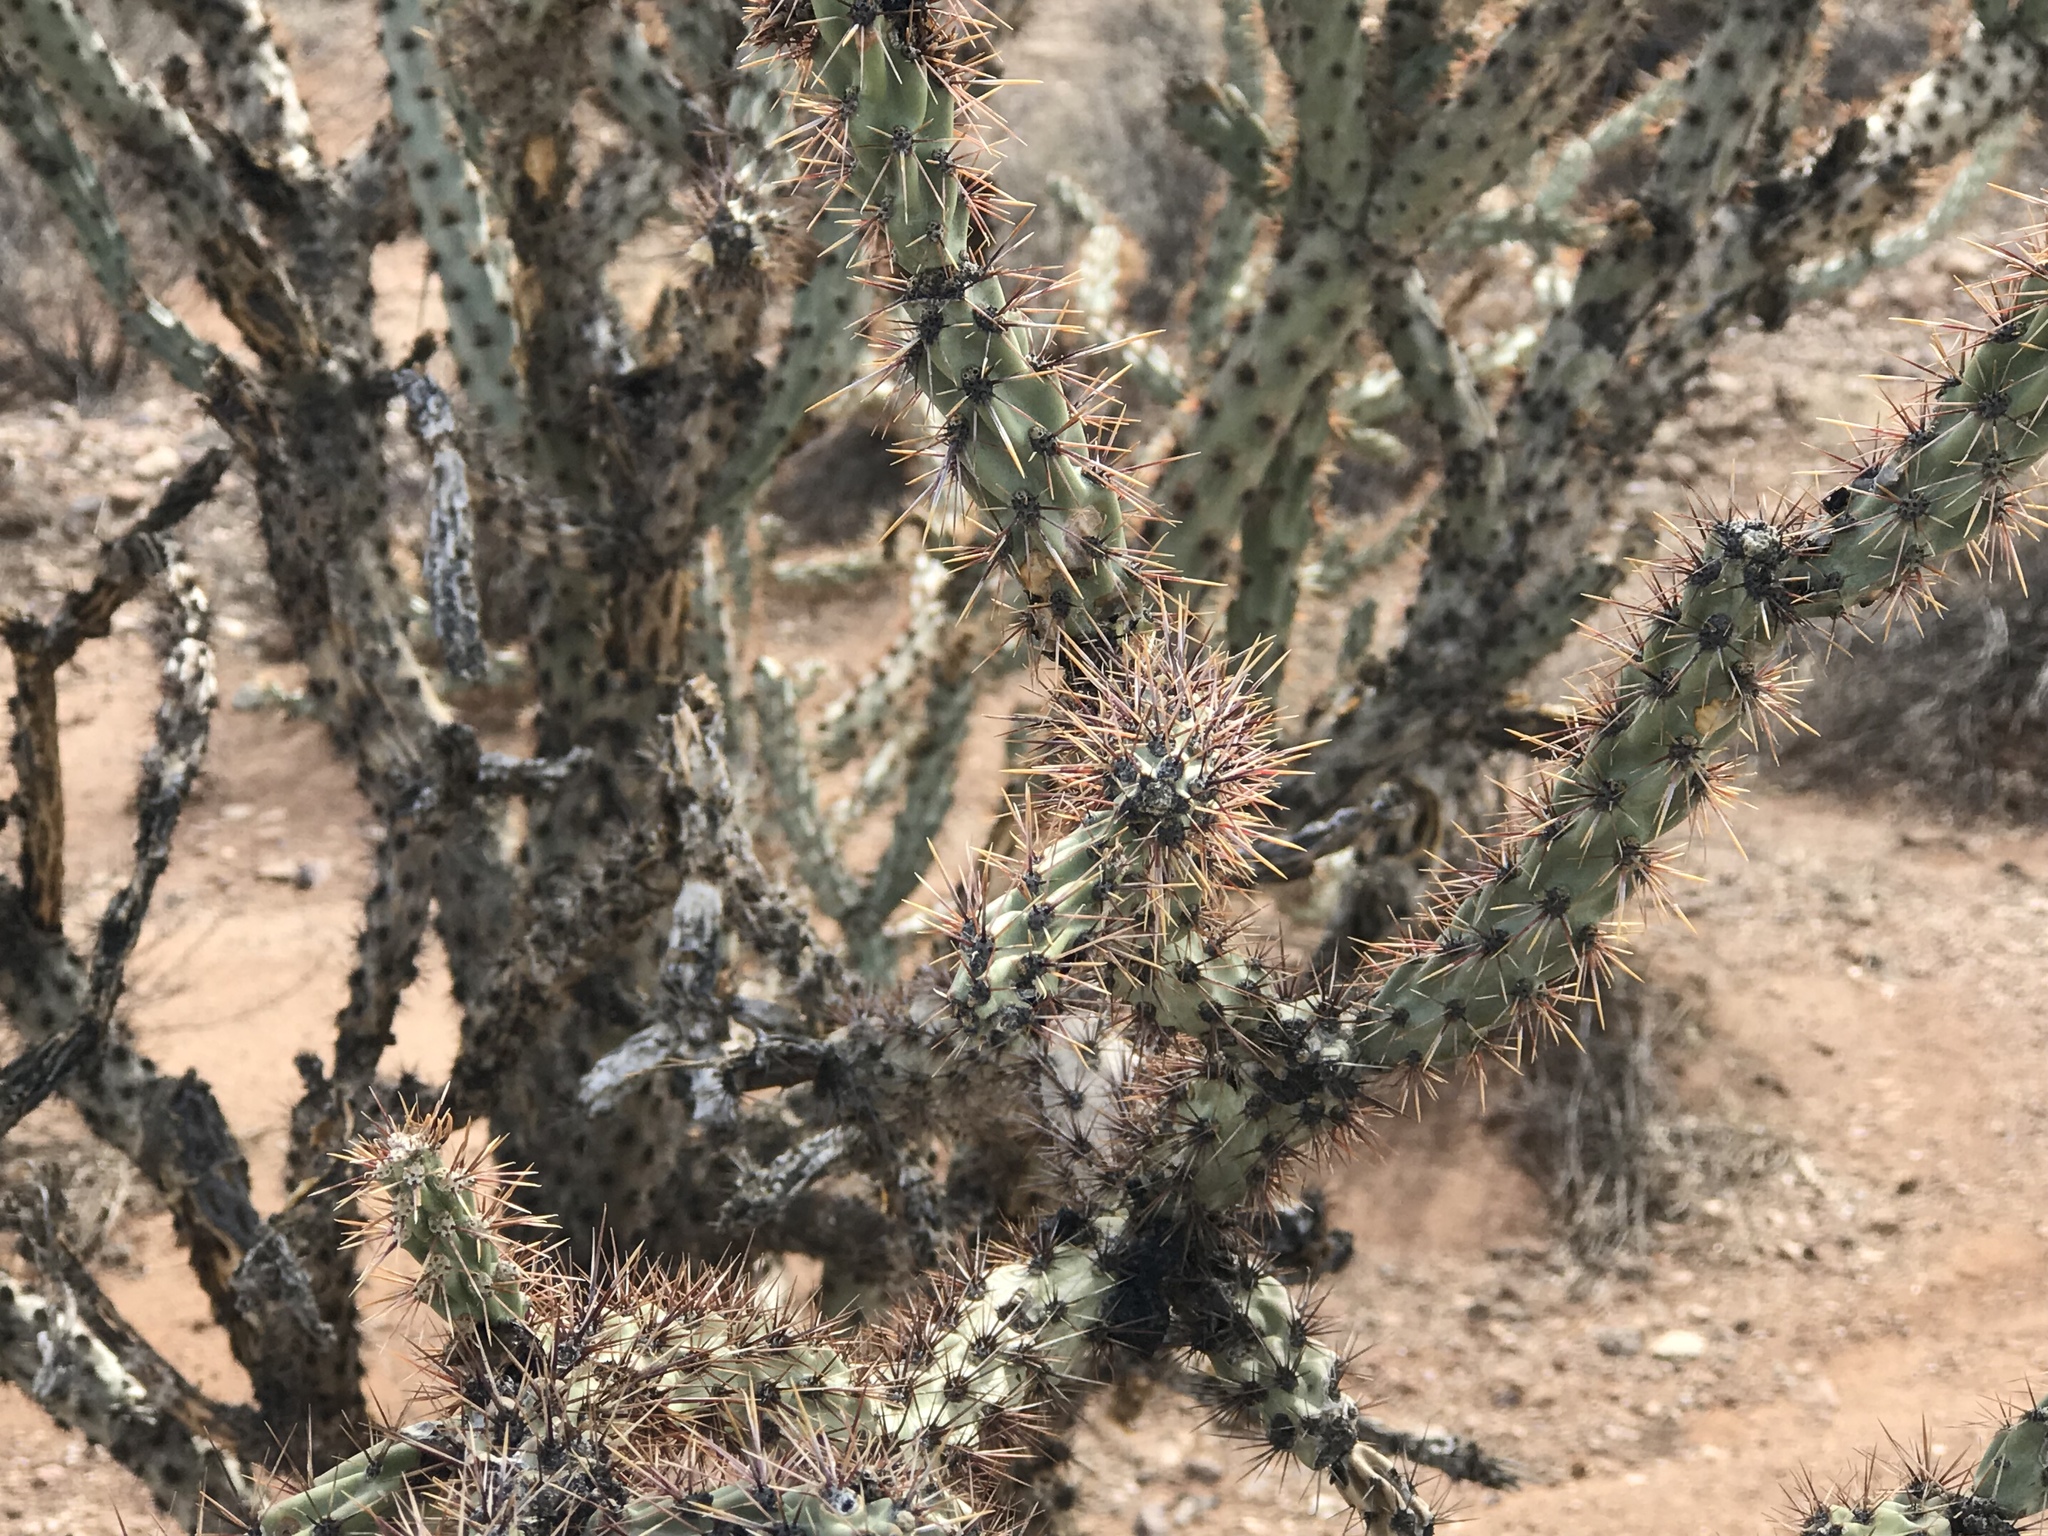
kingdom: Plantae
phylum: Tracheophyta
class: Magnoliopsida
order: Caryophyllales
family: Cactaceae
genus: Cylindropuntia
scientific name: Cylindropuntia acanthocarpa
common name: Buckhorn cholla
